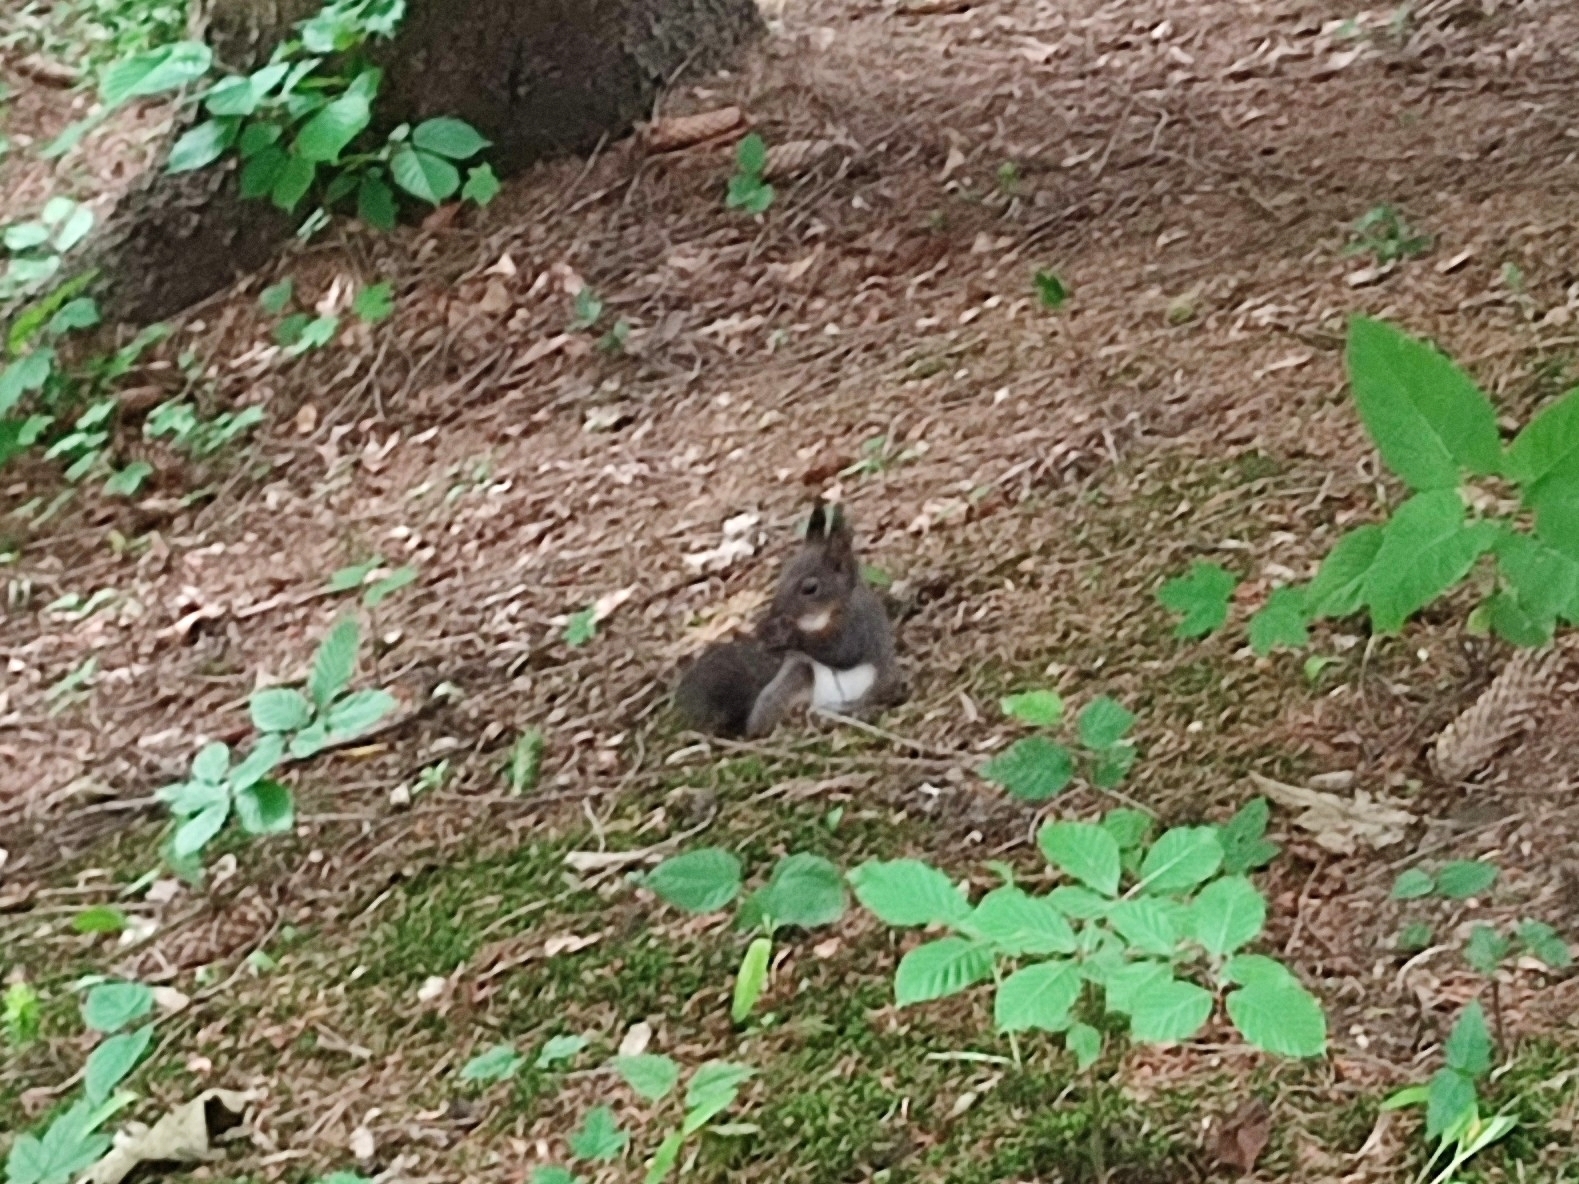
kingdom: Animalia
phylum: Chordata
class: Mammalia
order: Rodentia
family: Sciuridae
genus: Sciurus
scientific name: Sciurus vulgaris
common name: Eurasian red squirrel
